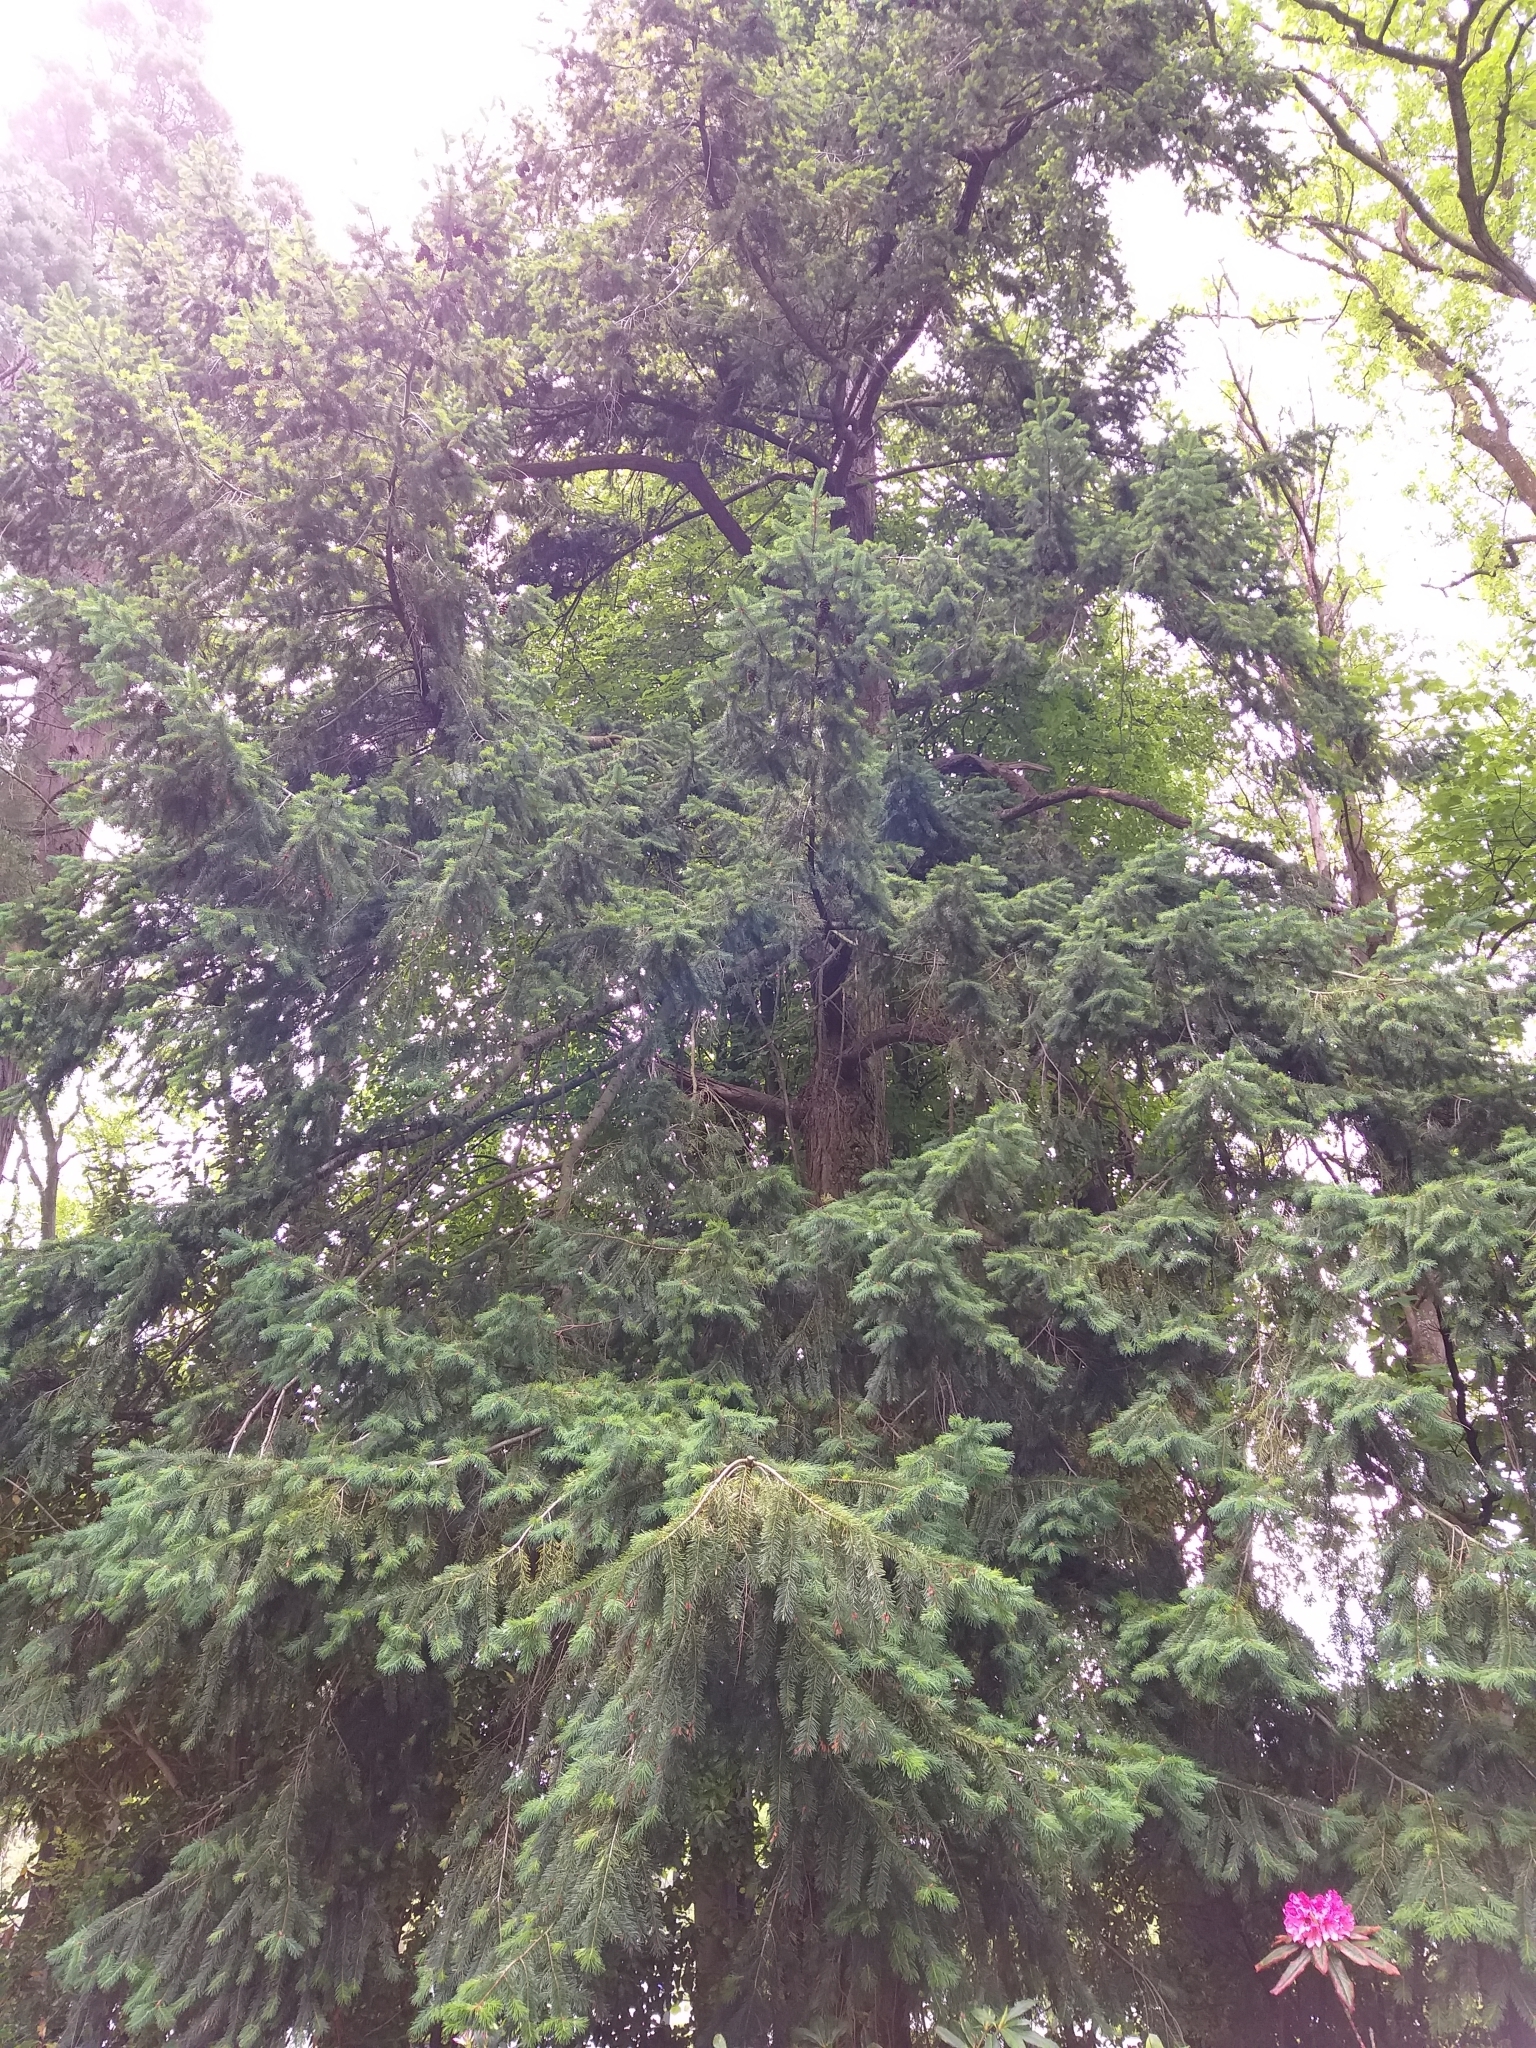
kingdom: Plantae
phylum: Tracheophyta
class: Pinopsida
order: Pinales
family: Pinaceae
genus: Pseudotsuga
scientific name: Pseudotsuga menziesii
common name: Douglas fir
